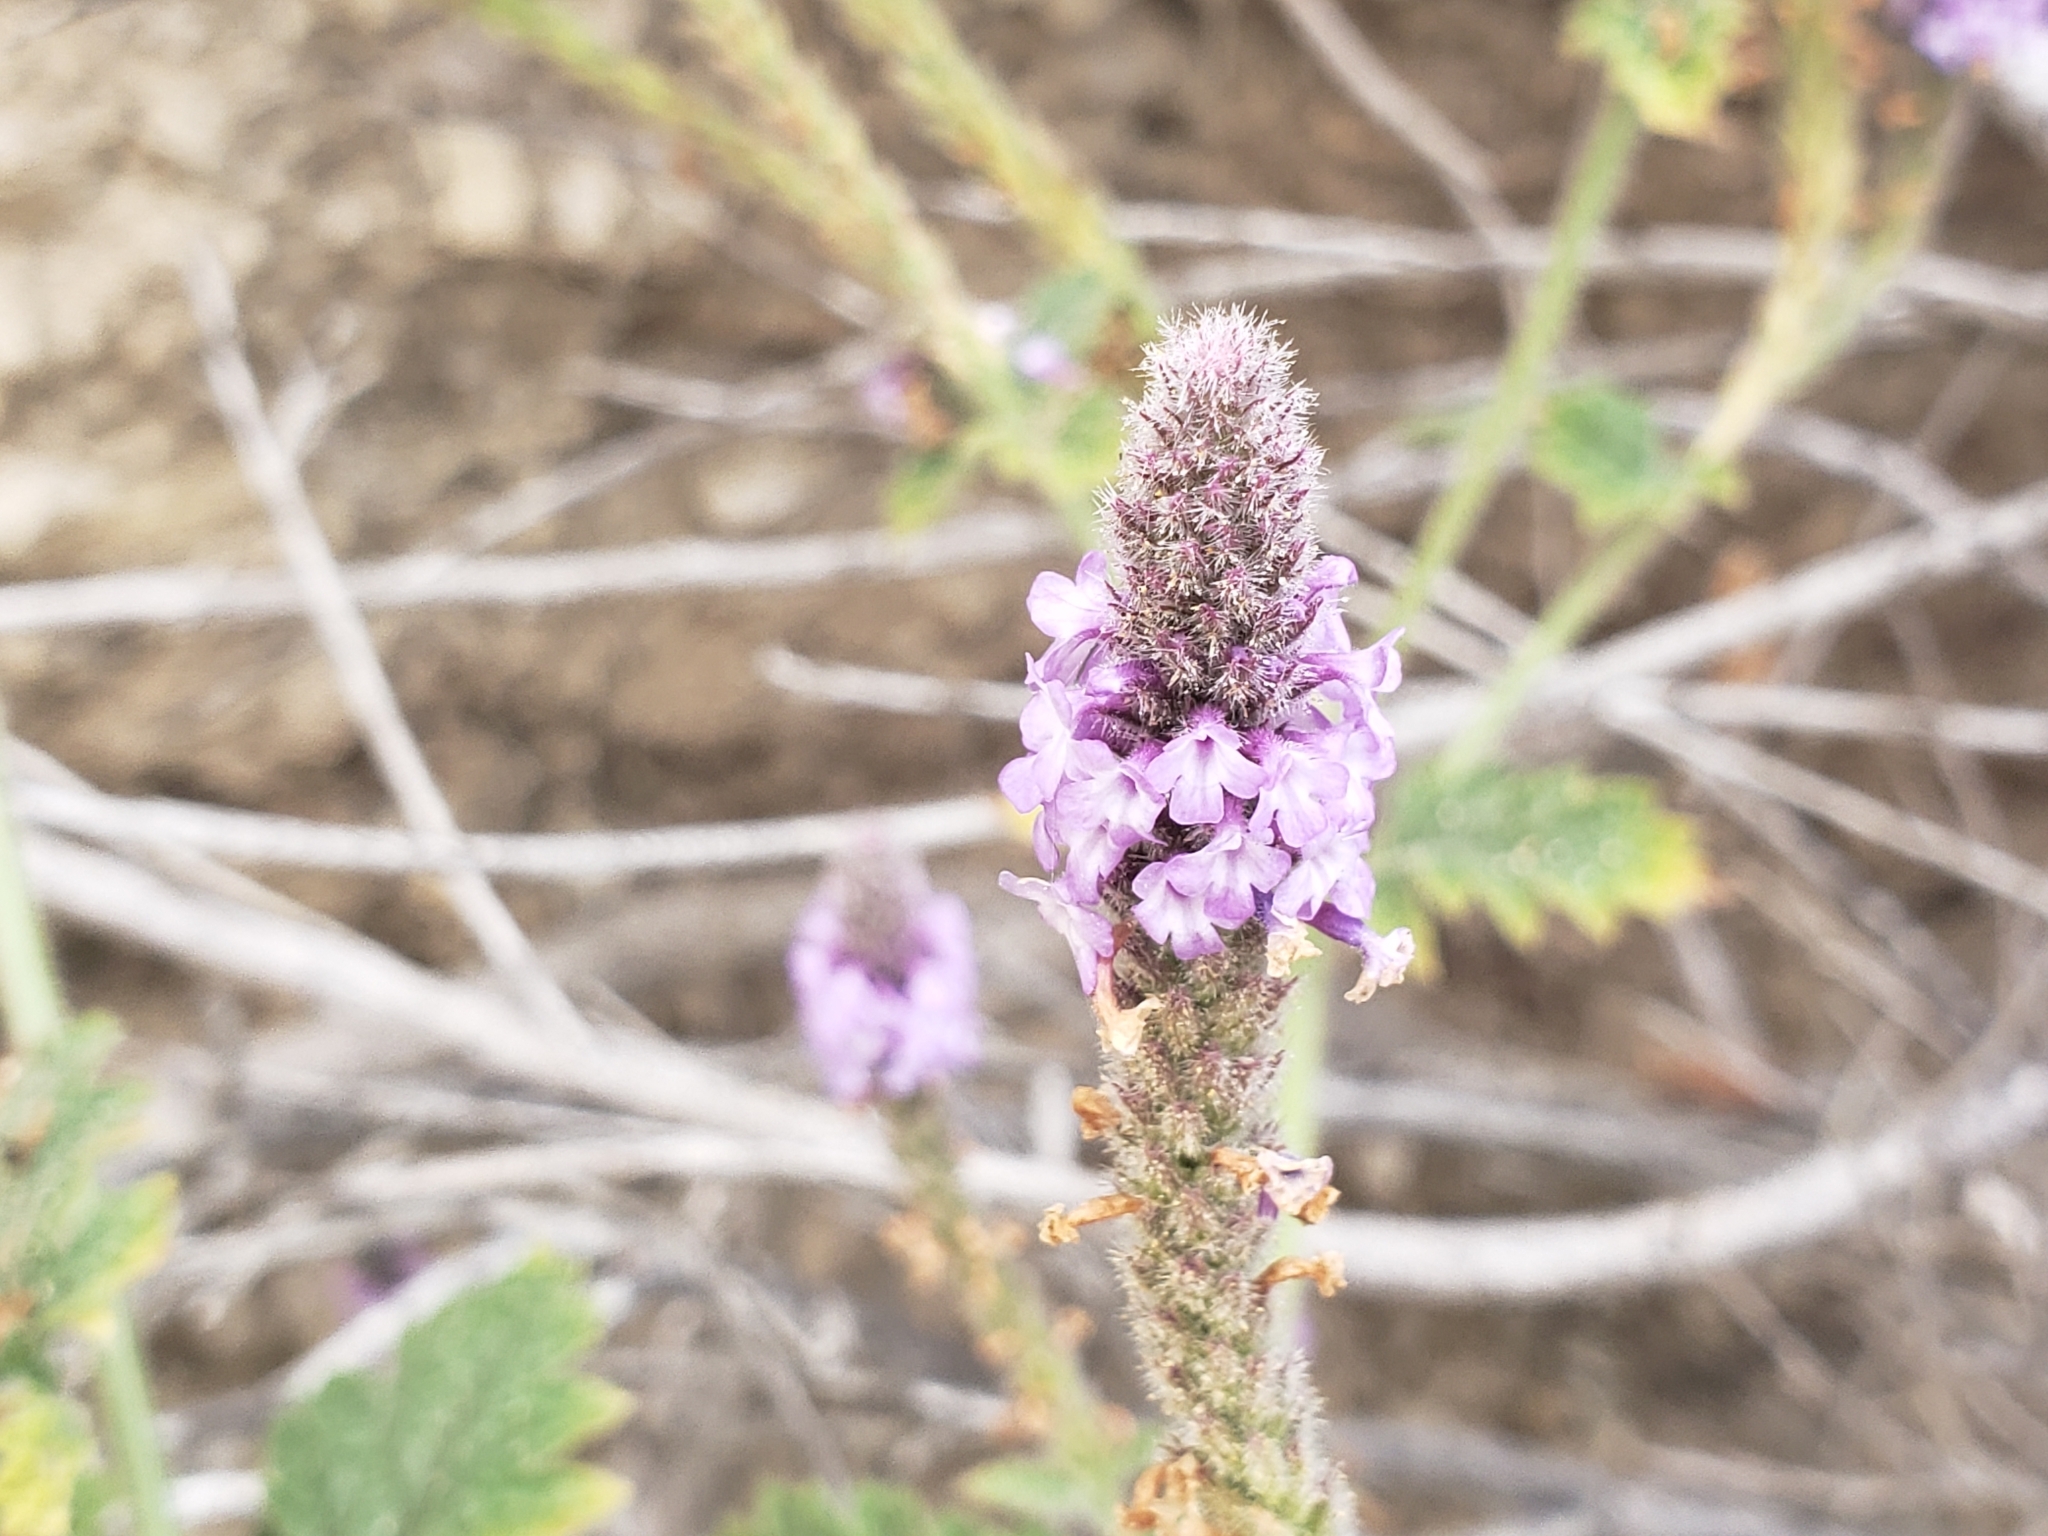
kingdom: Plantae
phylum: Tracheophyta
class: Magnoliopsida
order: Lamiales
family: Verbenaceae
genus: Verbena
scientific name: Verbena lasiostachys
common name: Vervain
